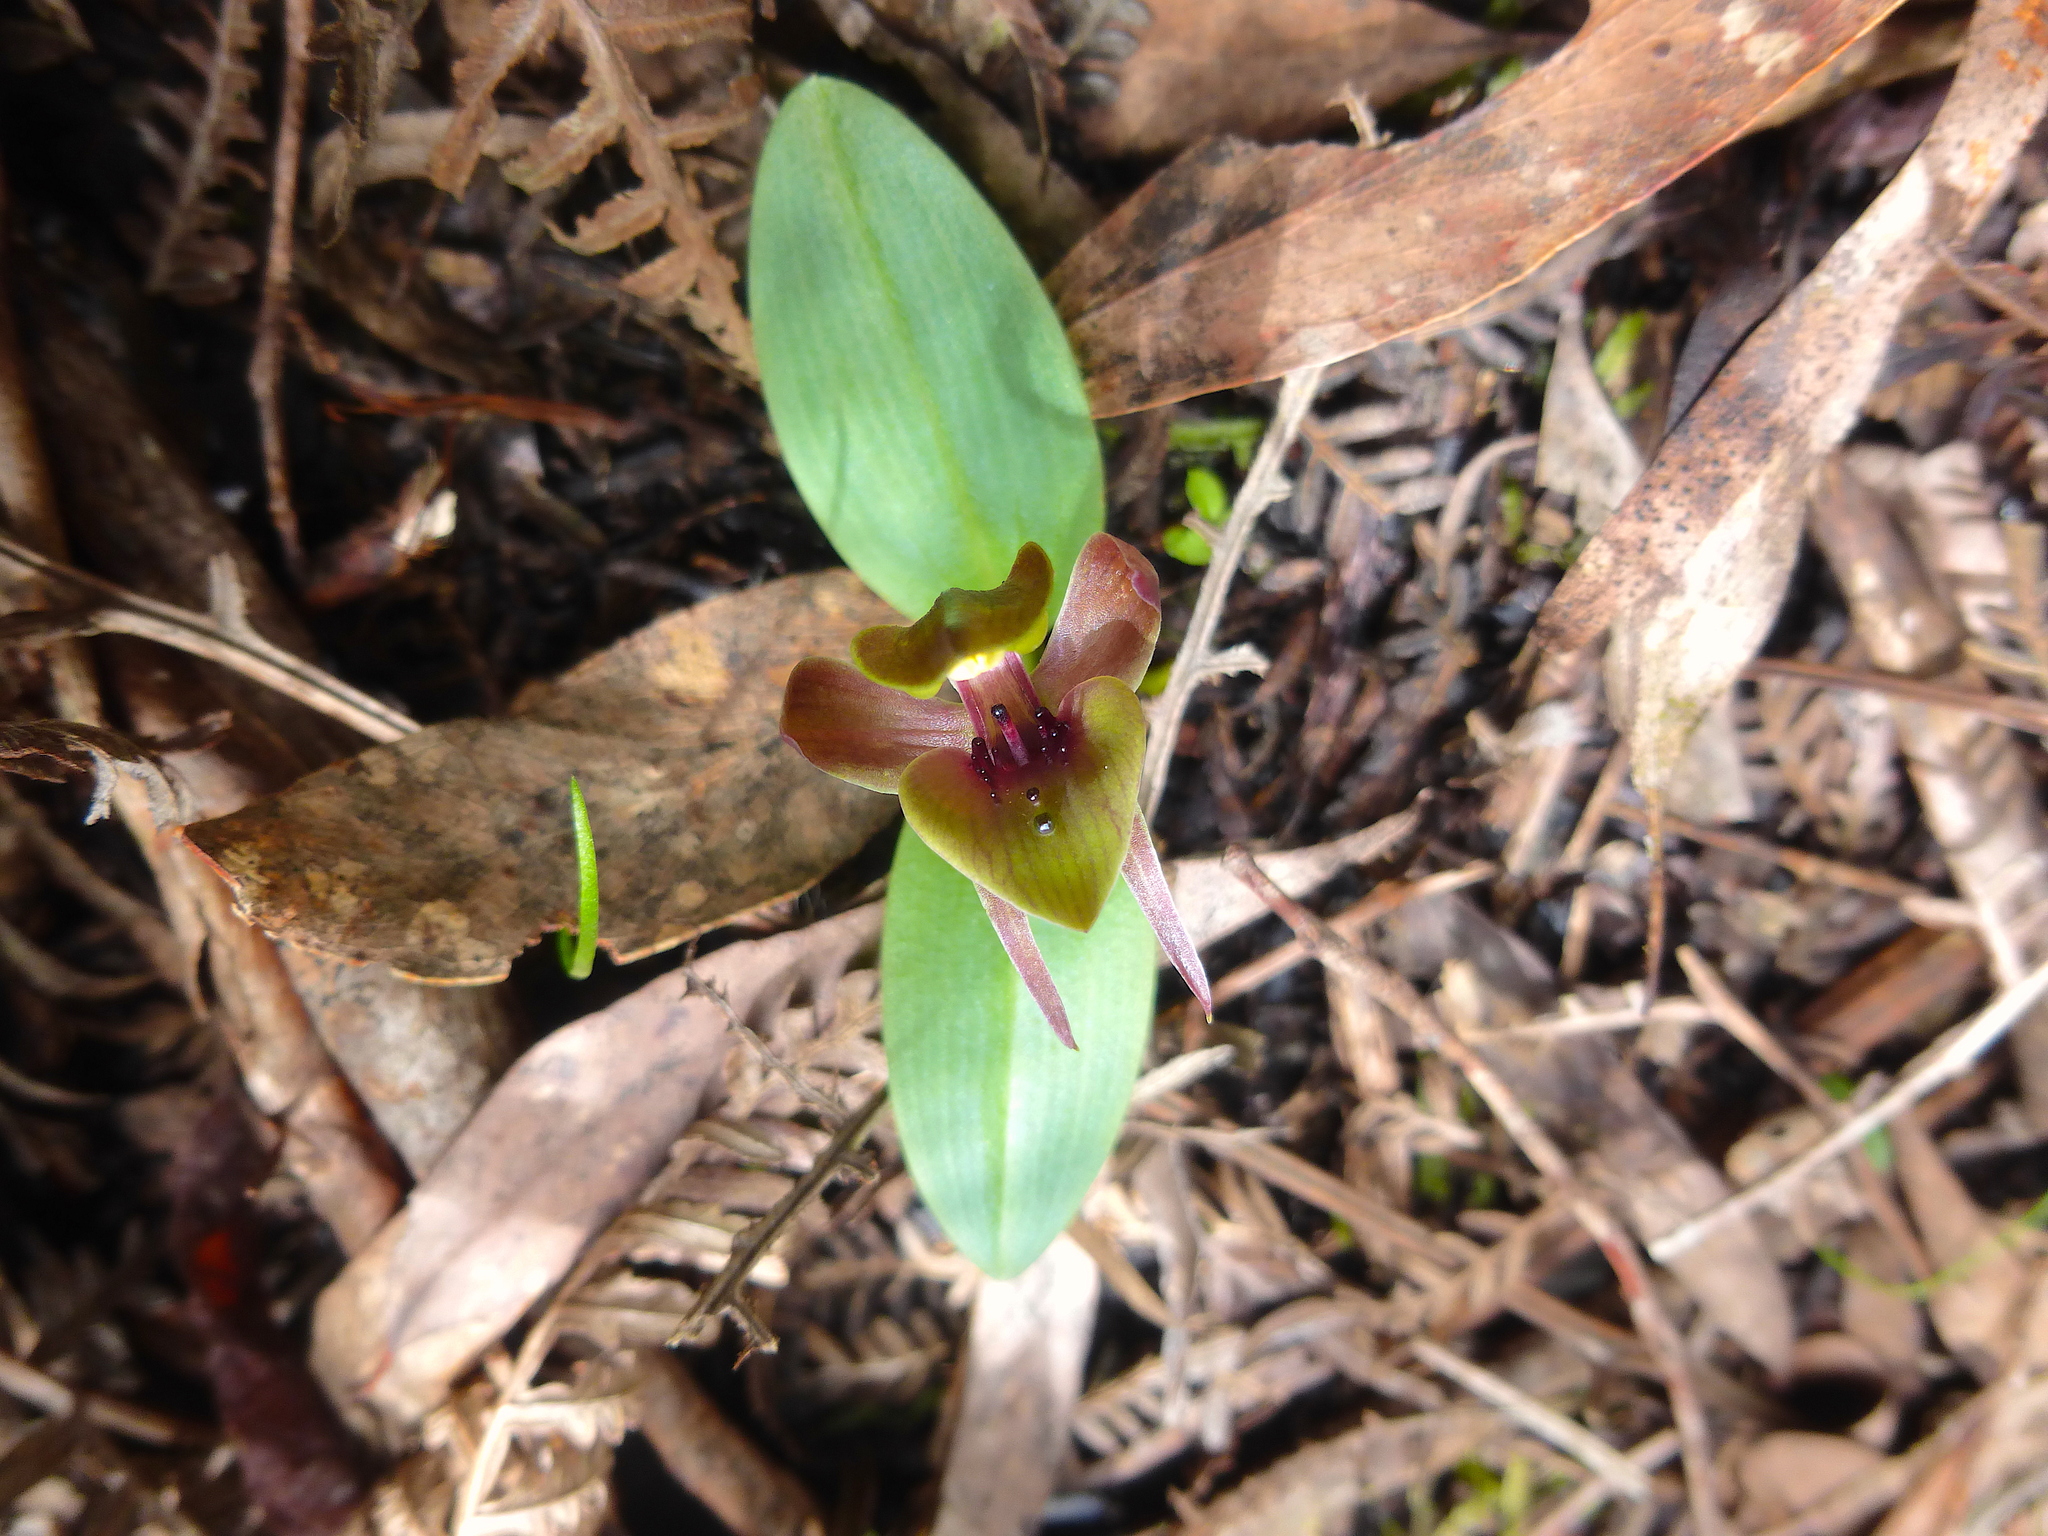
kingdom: Plantae
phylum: Tracheophyta
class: Liliopsida
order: Asparagales
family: Orchidaceae
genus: Chiloglottis
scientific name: Chiloglottis valida
